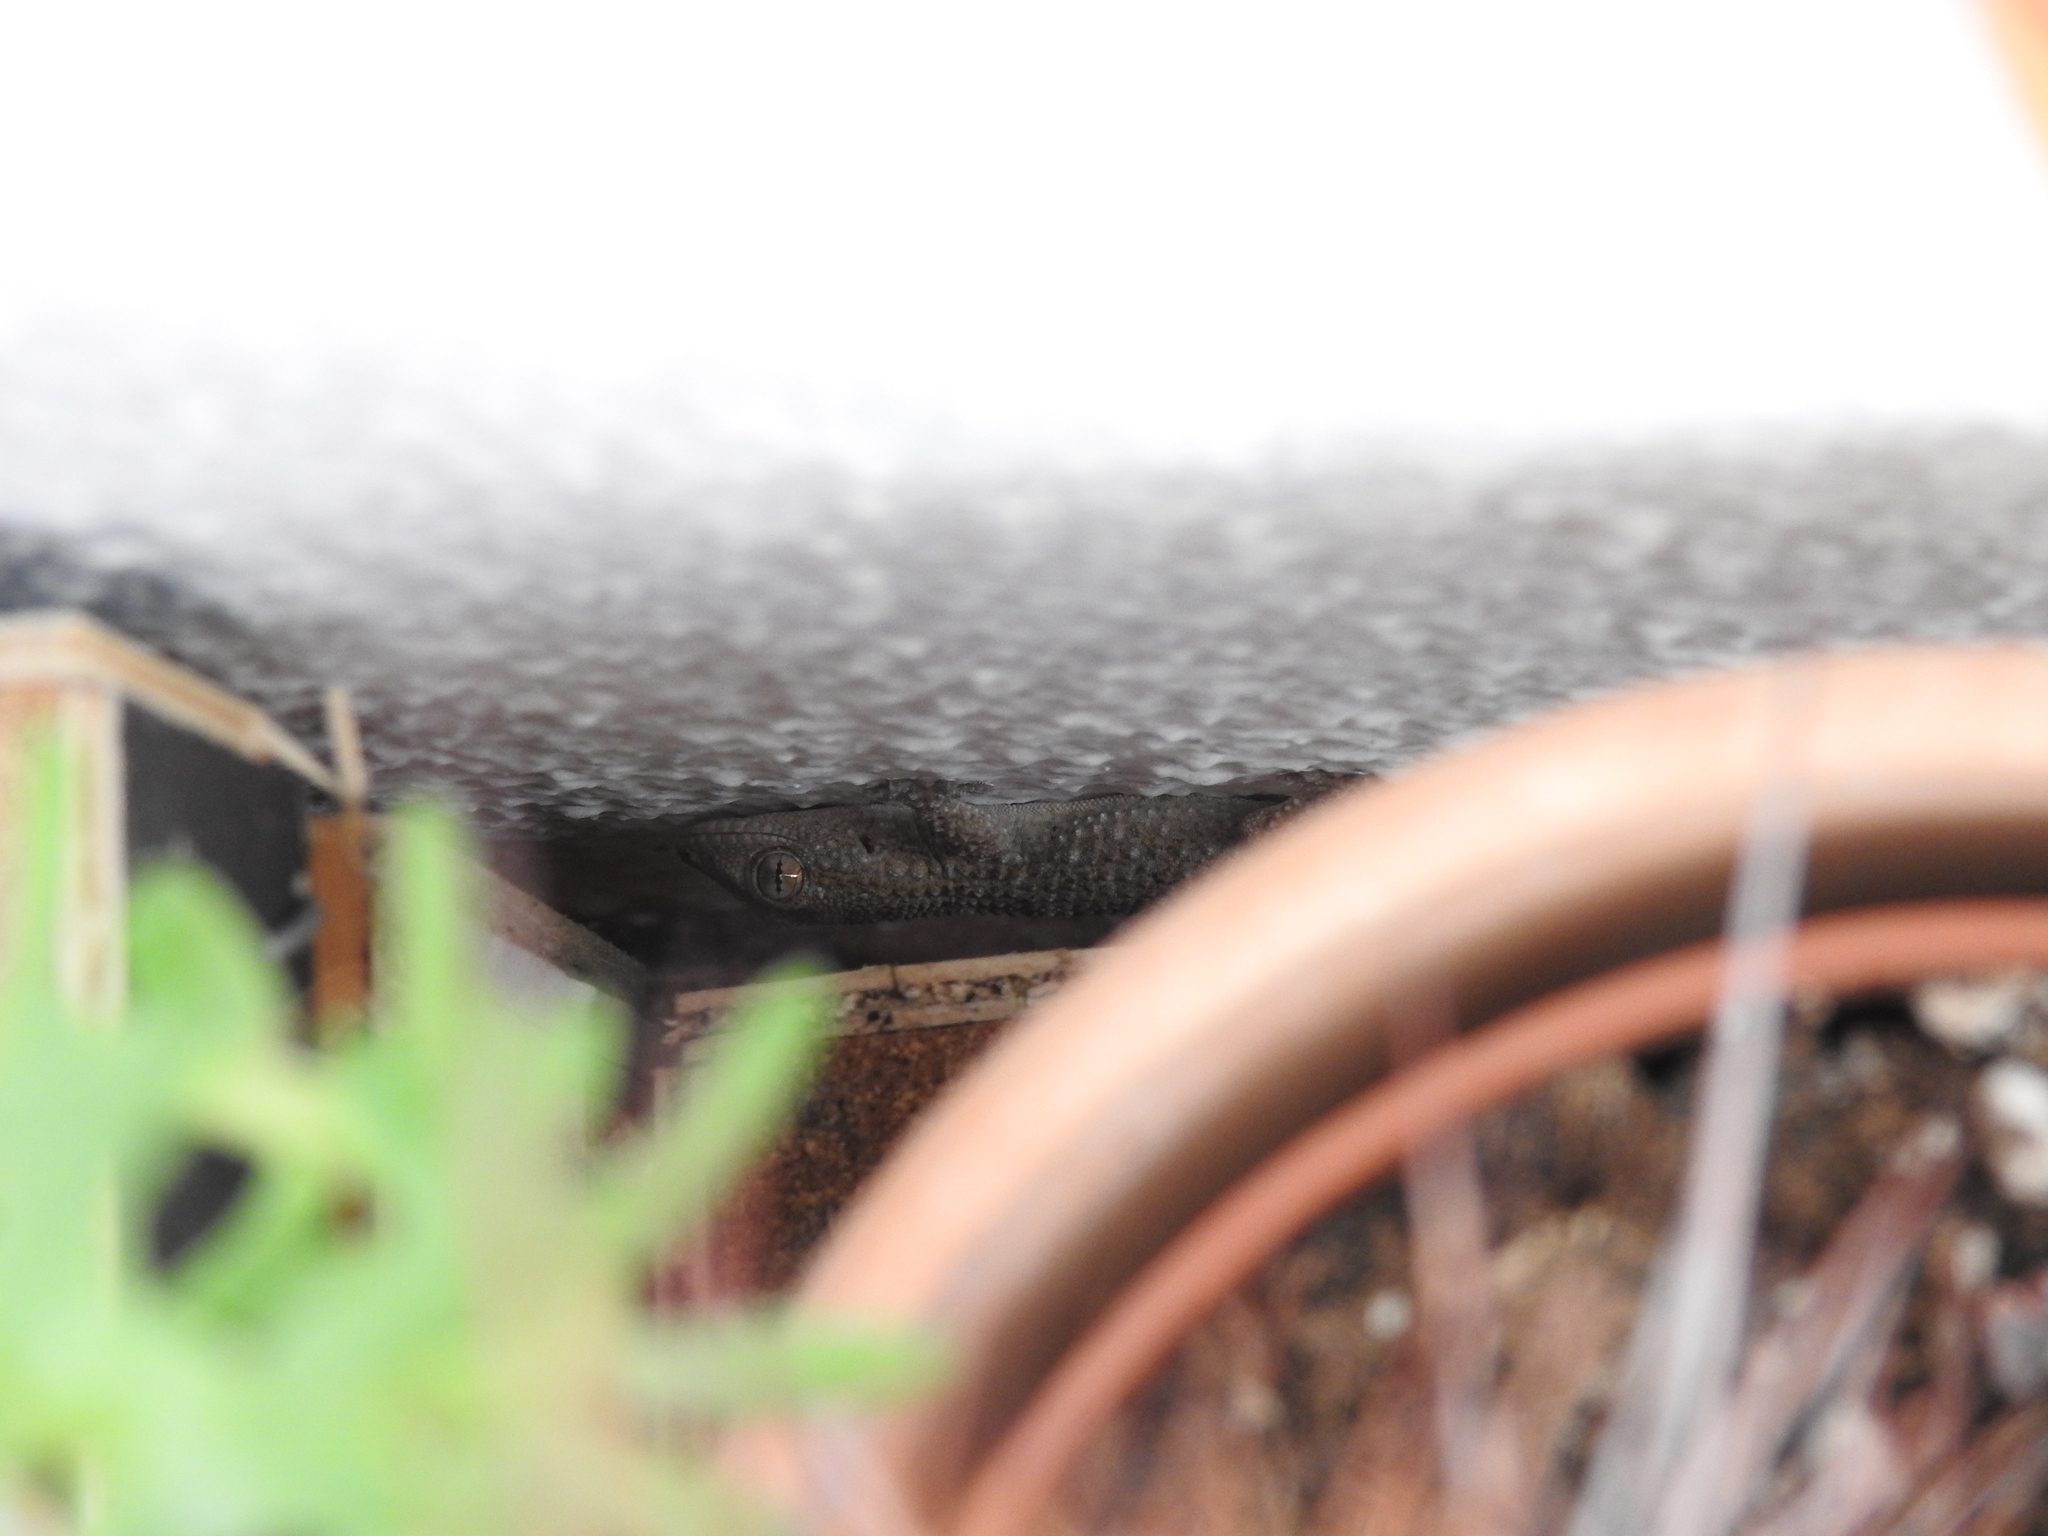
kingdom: Animalia
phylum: Chordata
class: Squamata
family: Phyllodactylidae
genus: Tarentola
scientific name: Tarentola mauritanica
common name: Moorish gecko
